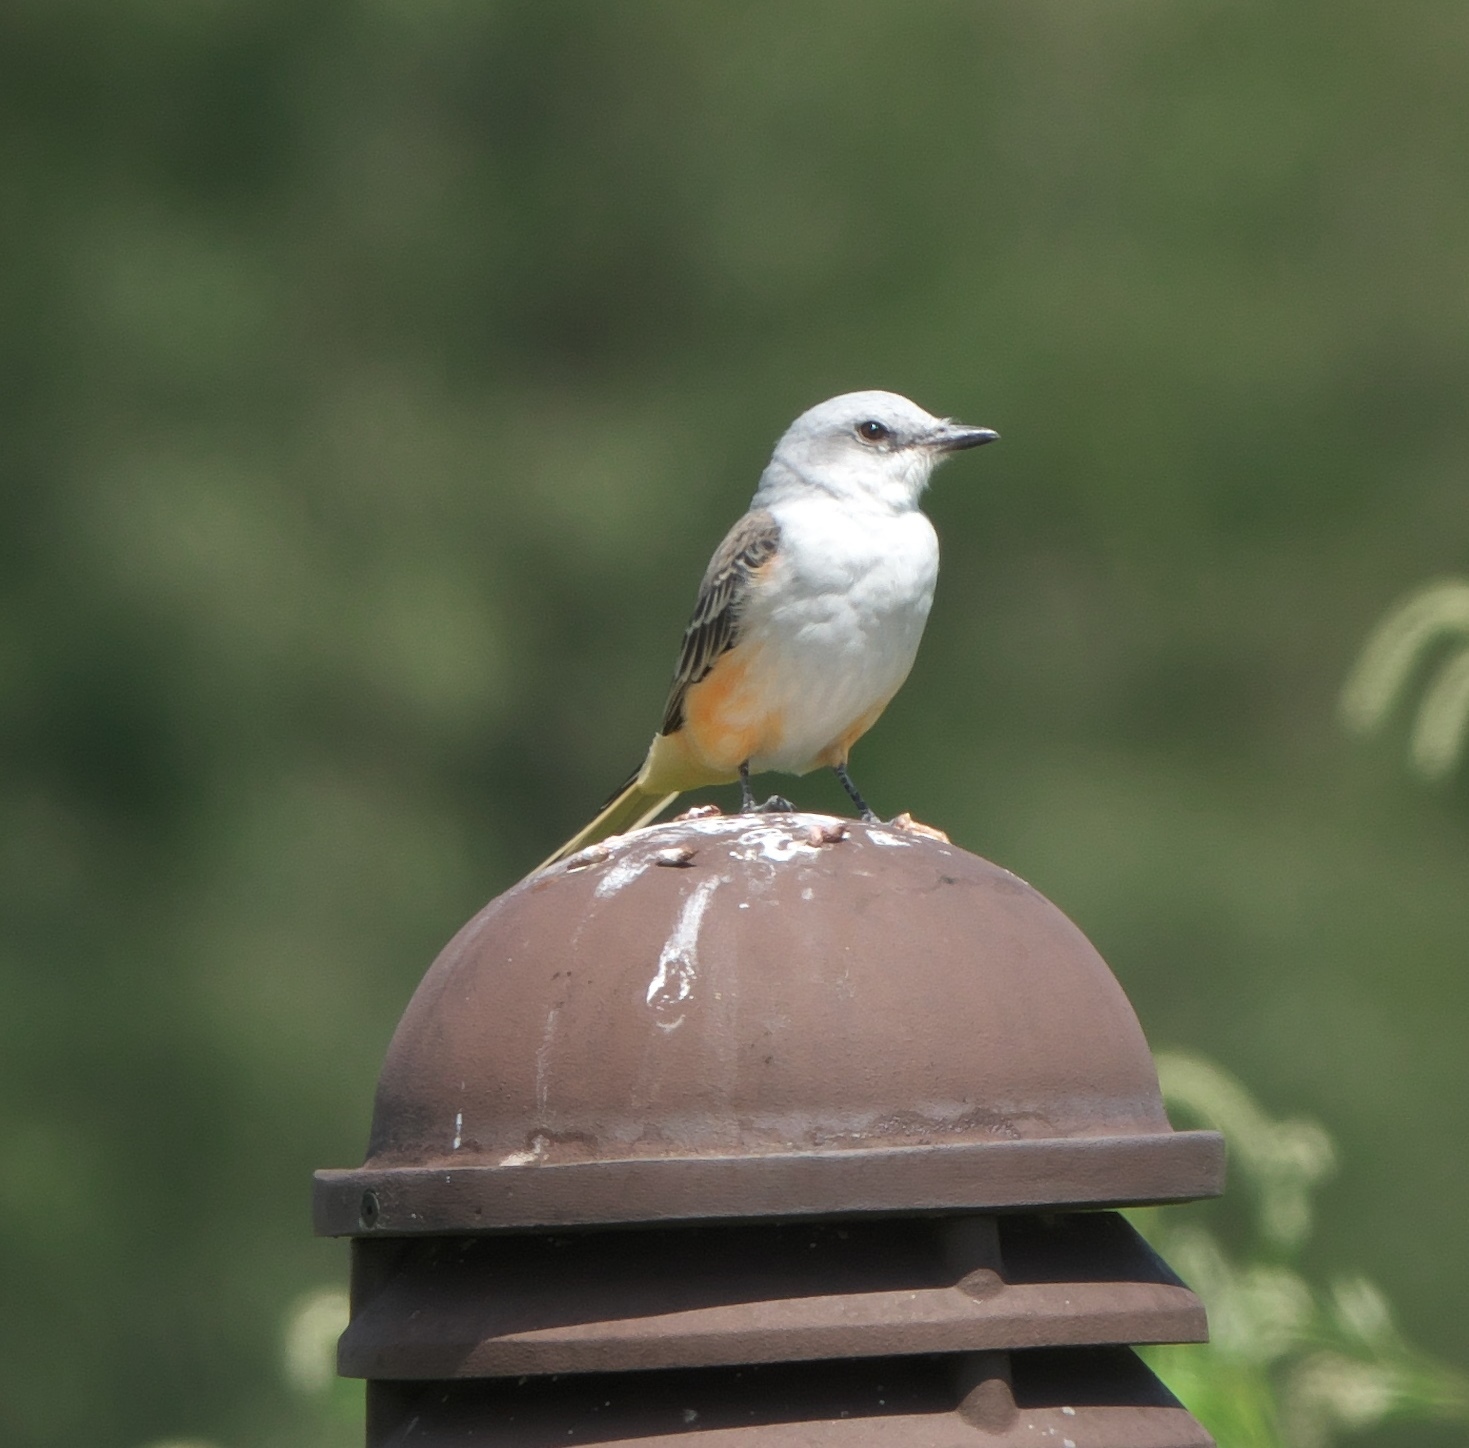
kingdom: Animalia
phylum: Chordata
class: Aves
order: Passeriformes
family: Tyrannidae
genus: Tyrannus
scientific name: Tyrannus forficatus
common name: Scissor-tailed flycatcher
